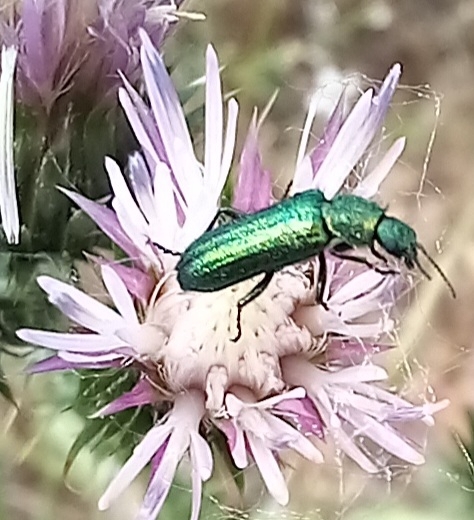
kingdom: Animalia
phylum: Arthropoda
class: Insecta
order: Coleoptera
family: Dasytidae
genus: Psilothrix
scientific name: Psilothrix viridicoerulea
